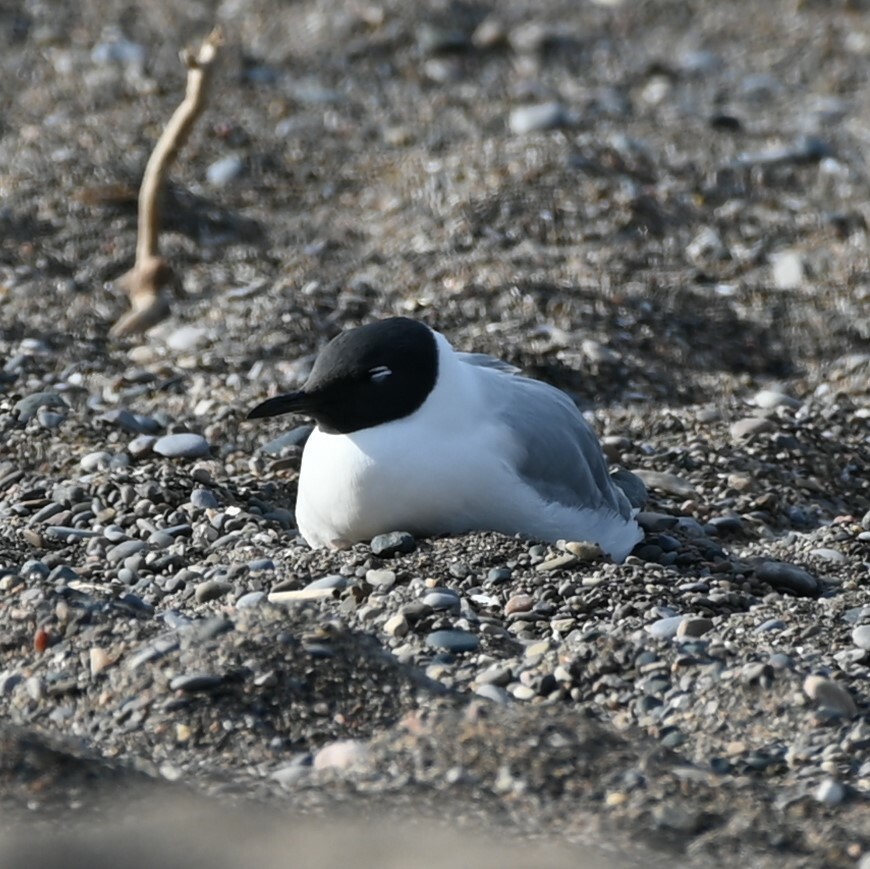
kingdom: Animalia
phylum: Chordata
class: Aves
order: Charadriiformes
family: Laridae
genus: Chroicocephalus
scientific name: Chroicocephalus philadelphia
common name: Bonaparte's gull
